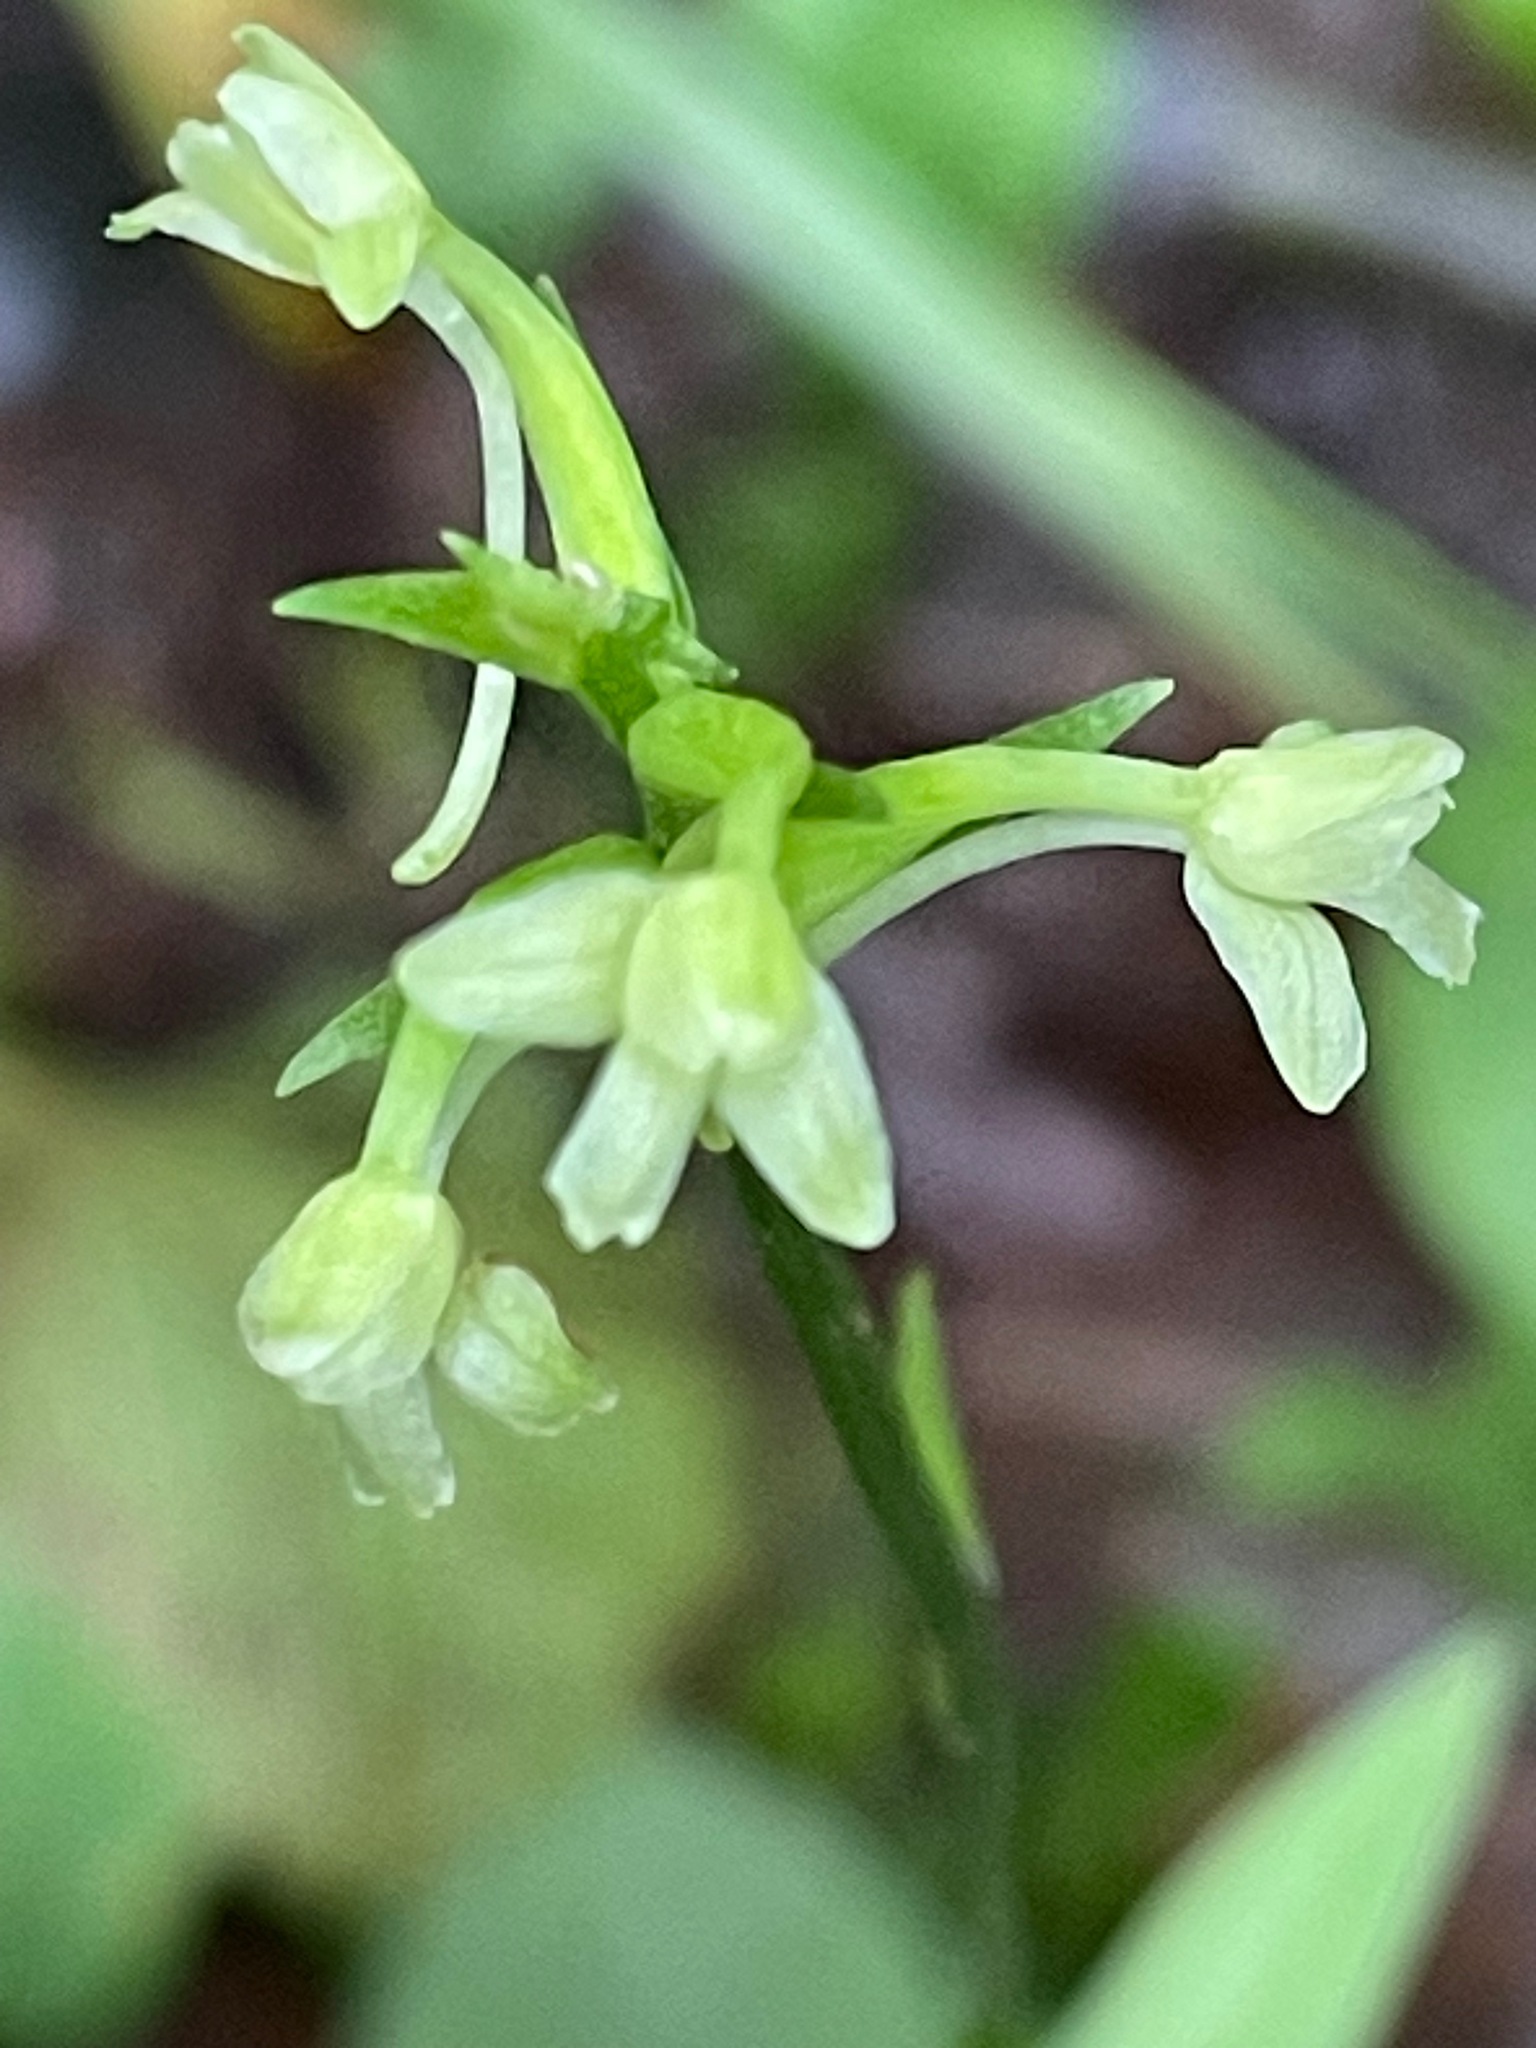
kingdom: Plantae
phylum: Tracheophyta
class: Liliopsida
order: Asparagales
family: Orchidaceae
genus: Platanthera
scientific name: Platanthera clavellata
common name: Club-spur orchid
